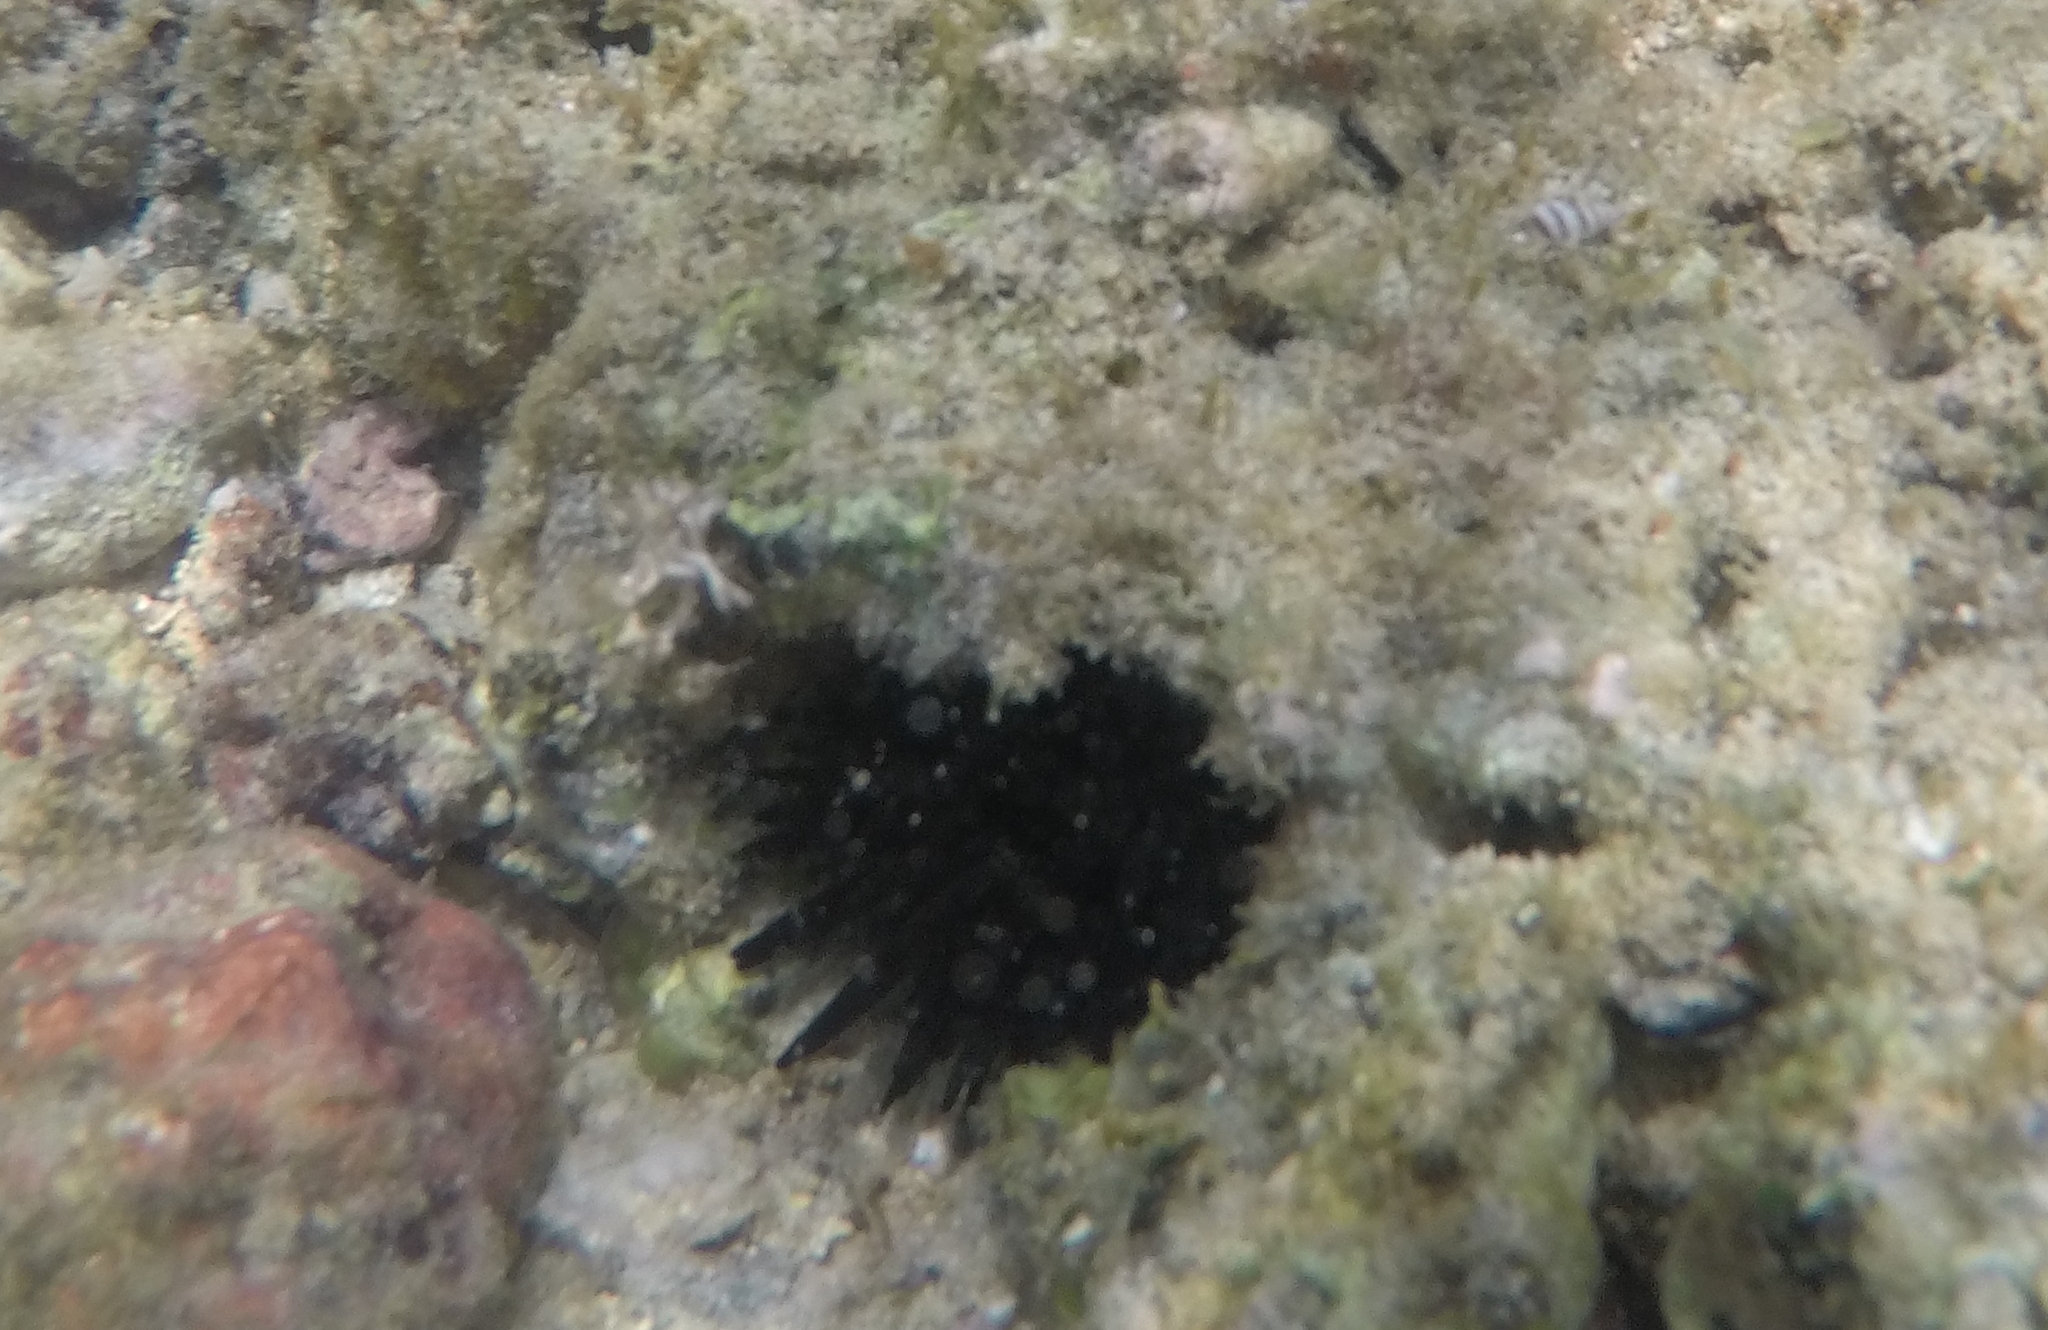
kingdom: Animalia
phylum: Echinodermata
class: Echinoidea
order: Camarodonta
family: Echinometridae
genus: Echinometra
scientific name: Echinometra oblonga
